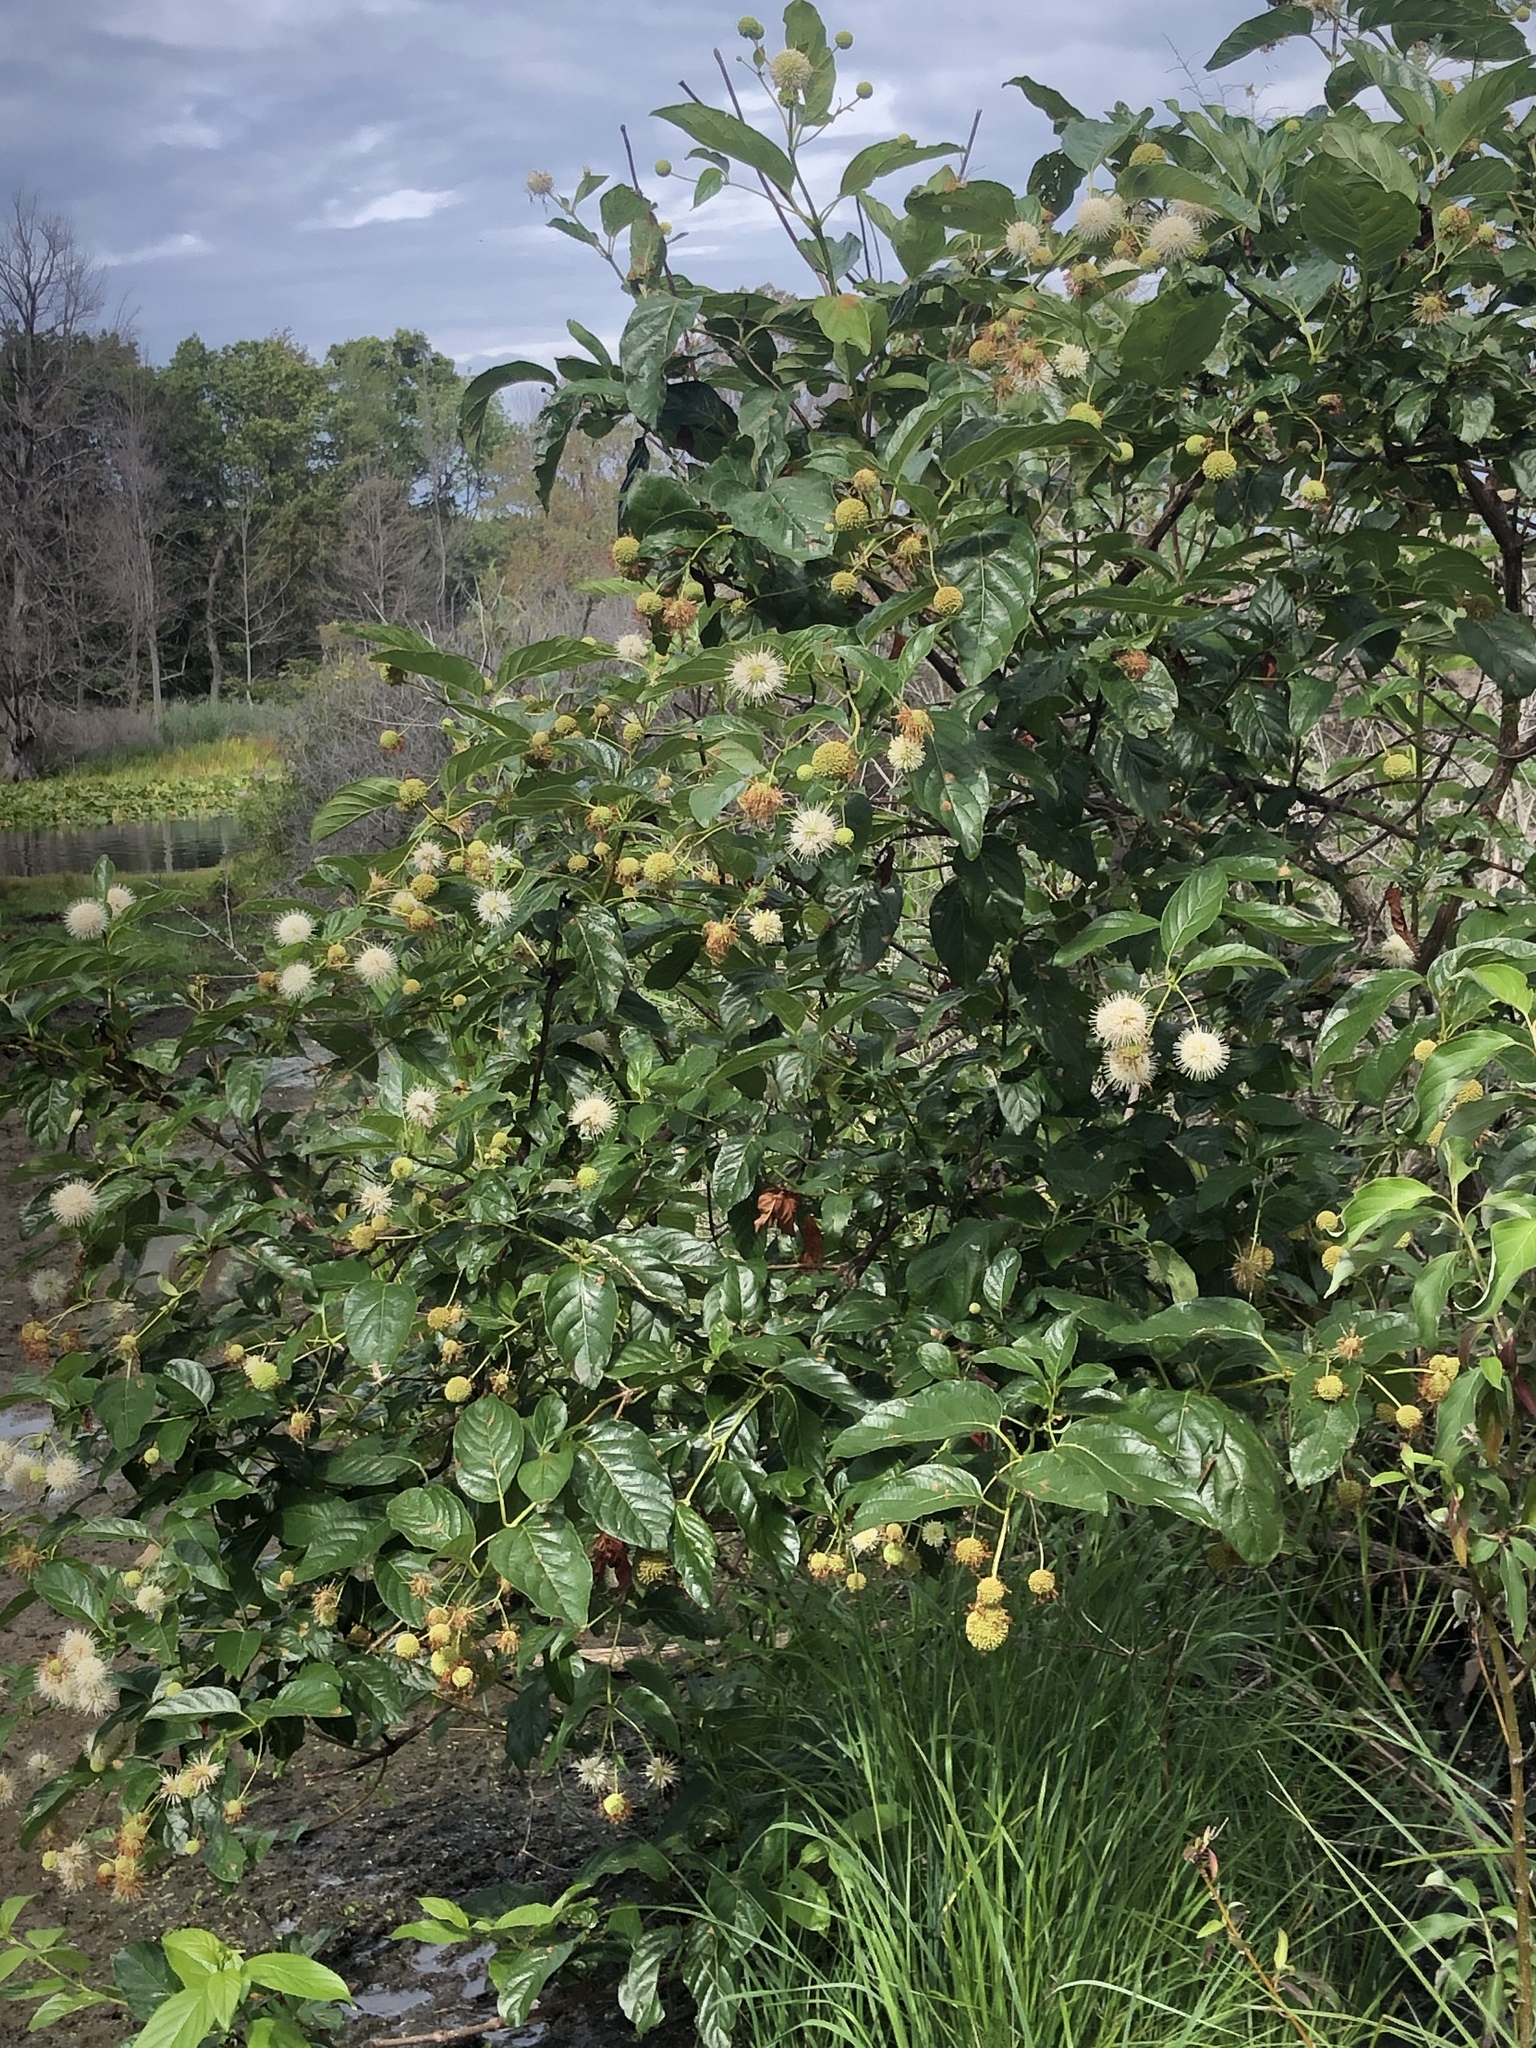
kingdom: Plantae
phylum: Tracheophyta
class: Magnoliopsida
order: Gentianales
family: Rubiaceae
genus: Cephalanthus
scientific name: Cephalanthus occidentalis
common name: Button-willow
